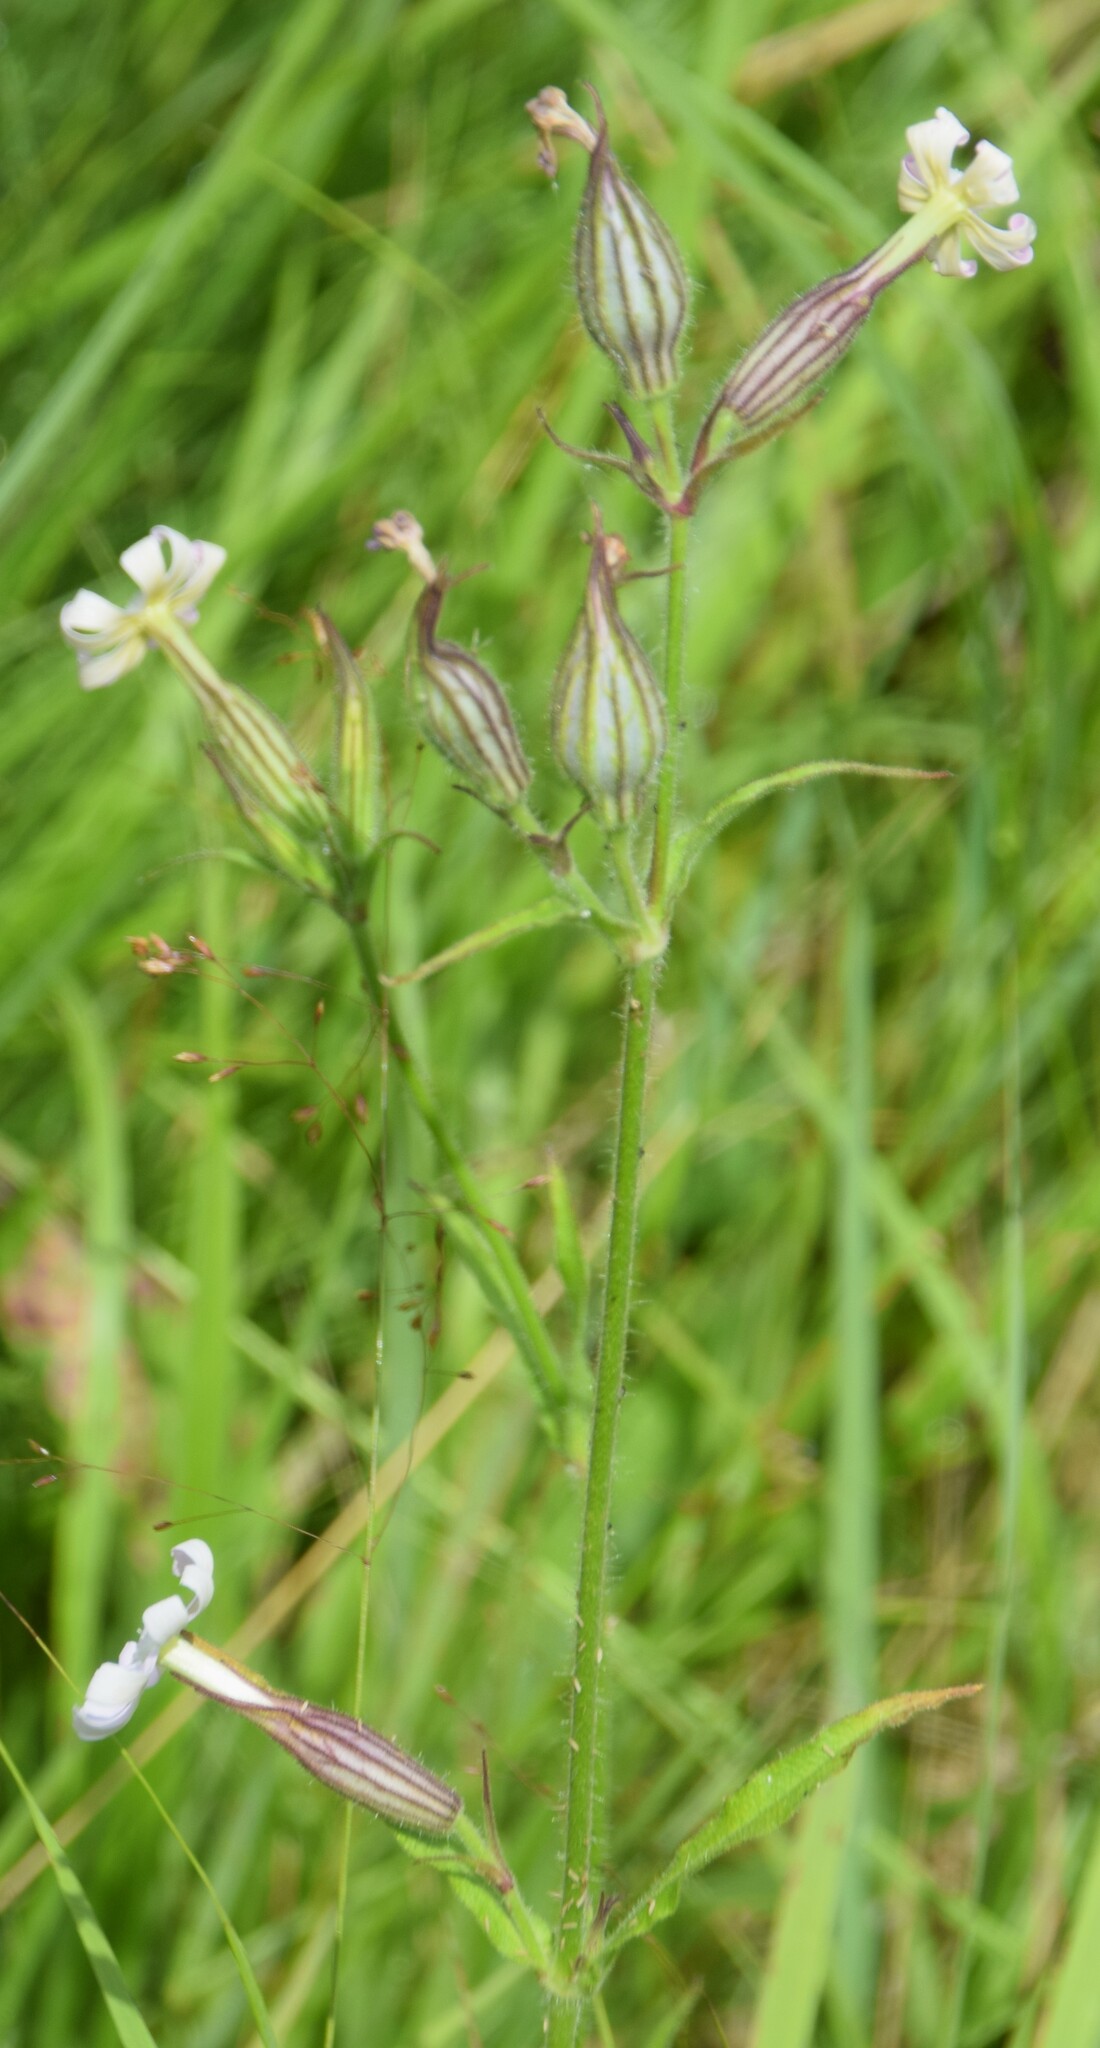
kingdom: Plantae
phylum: Tracheophyta
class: Magnoliopsida
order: Caryophyllales
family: Caryophyllaceae
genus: Silene
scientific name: Silene latifolia
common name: White campion
